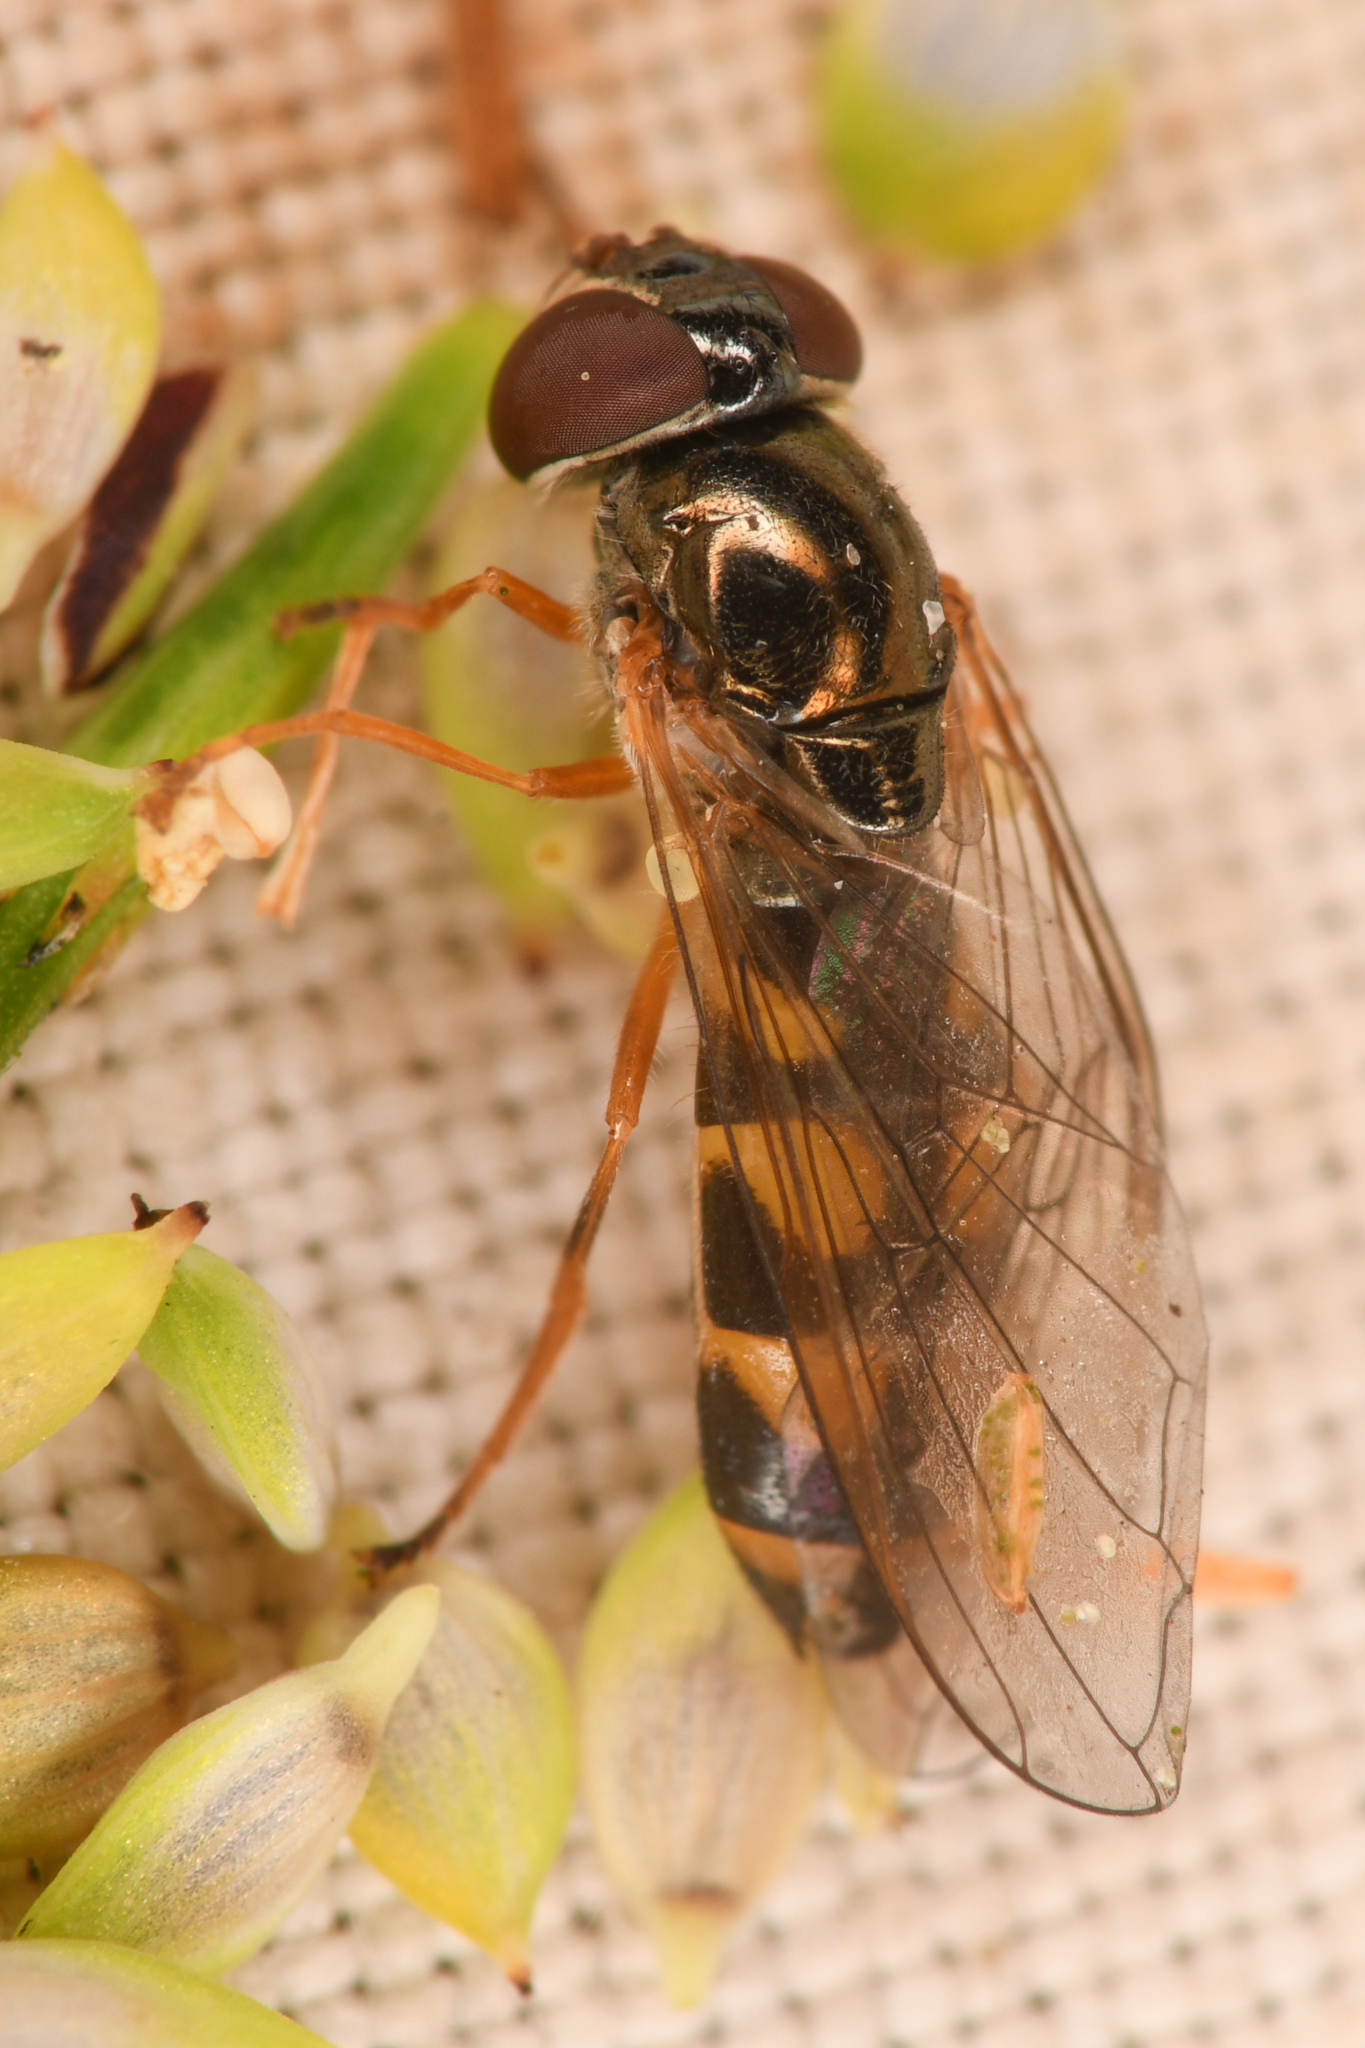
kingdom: Animalia
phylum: Arthropoda
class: Insecta
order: Diptera
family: Syrphidae
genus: Melanostoma
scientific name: Melanostoma mellina
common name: Hover fly
